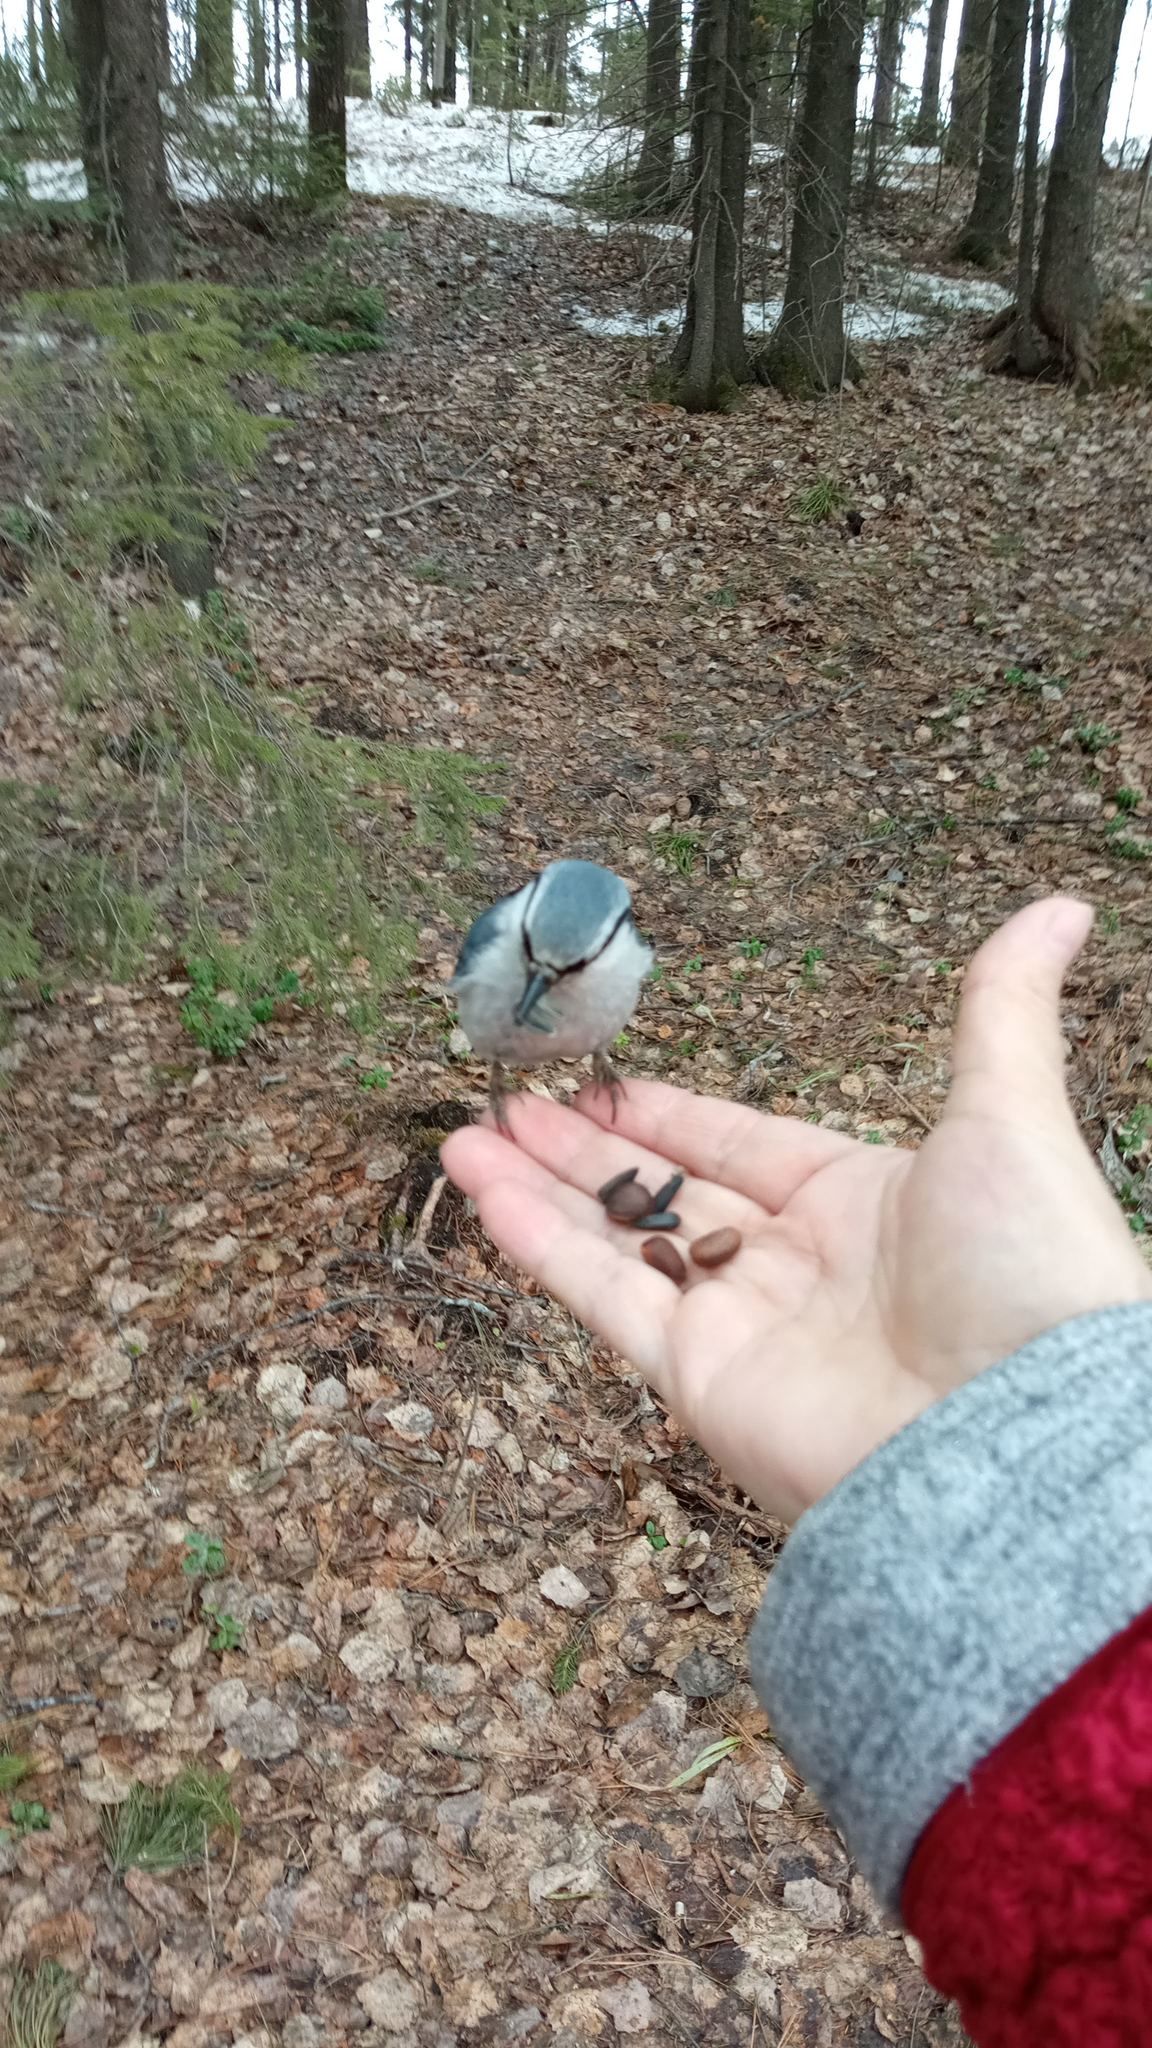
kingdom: Animalia
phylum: Chordata
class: Aves
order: Passeriformes
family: Sittidae
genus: Sitta
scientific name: Sitta europaea
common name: Eurasian nuthatch
